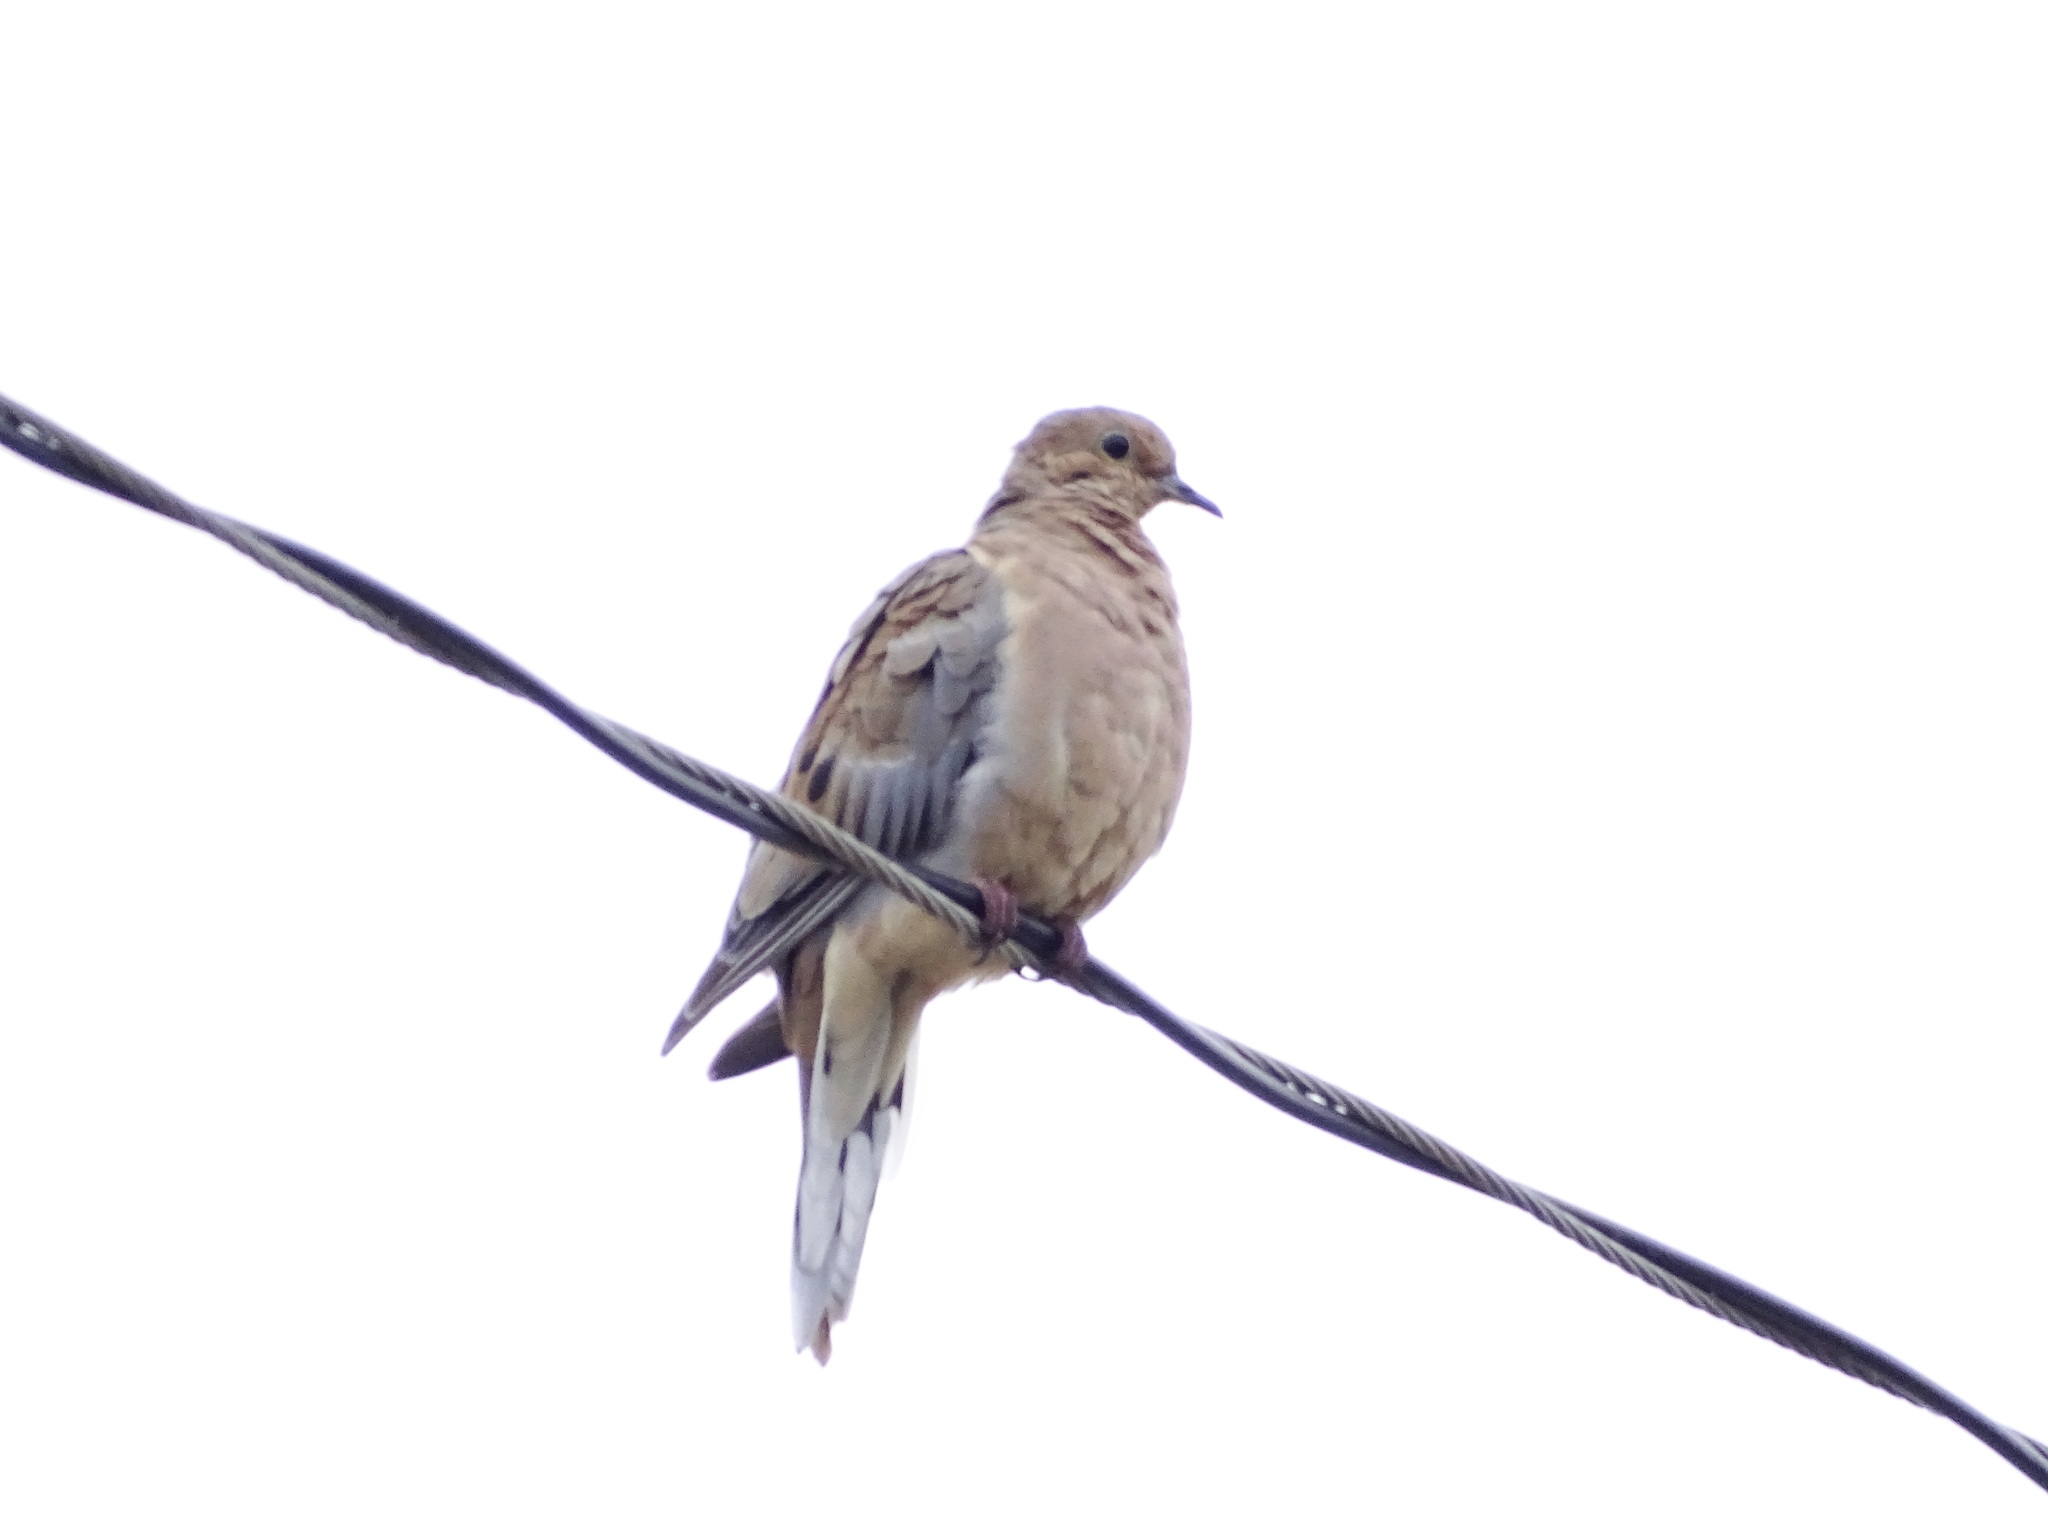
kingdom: Animalia
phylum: Chordata
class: Aves
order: Columbiformes
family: Columbidae
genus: Zenaida
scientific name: Zenaida macroura
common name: Mourning dove
